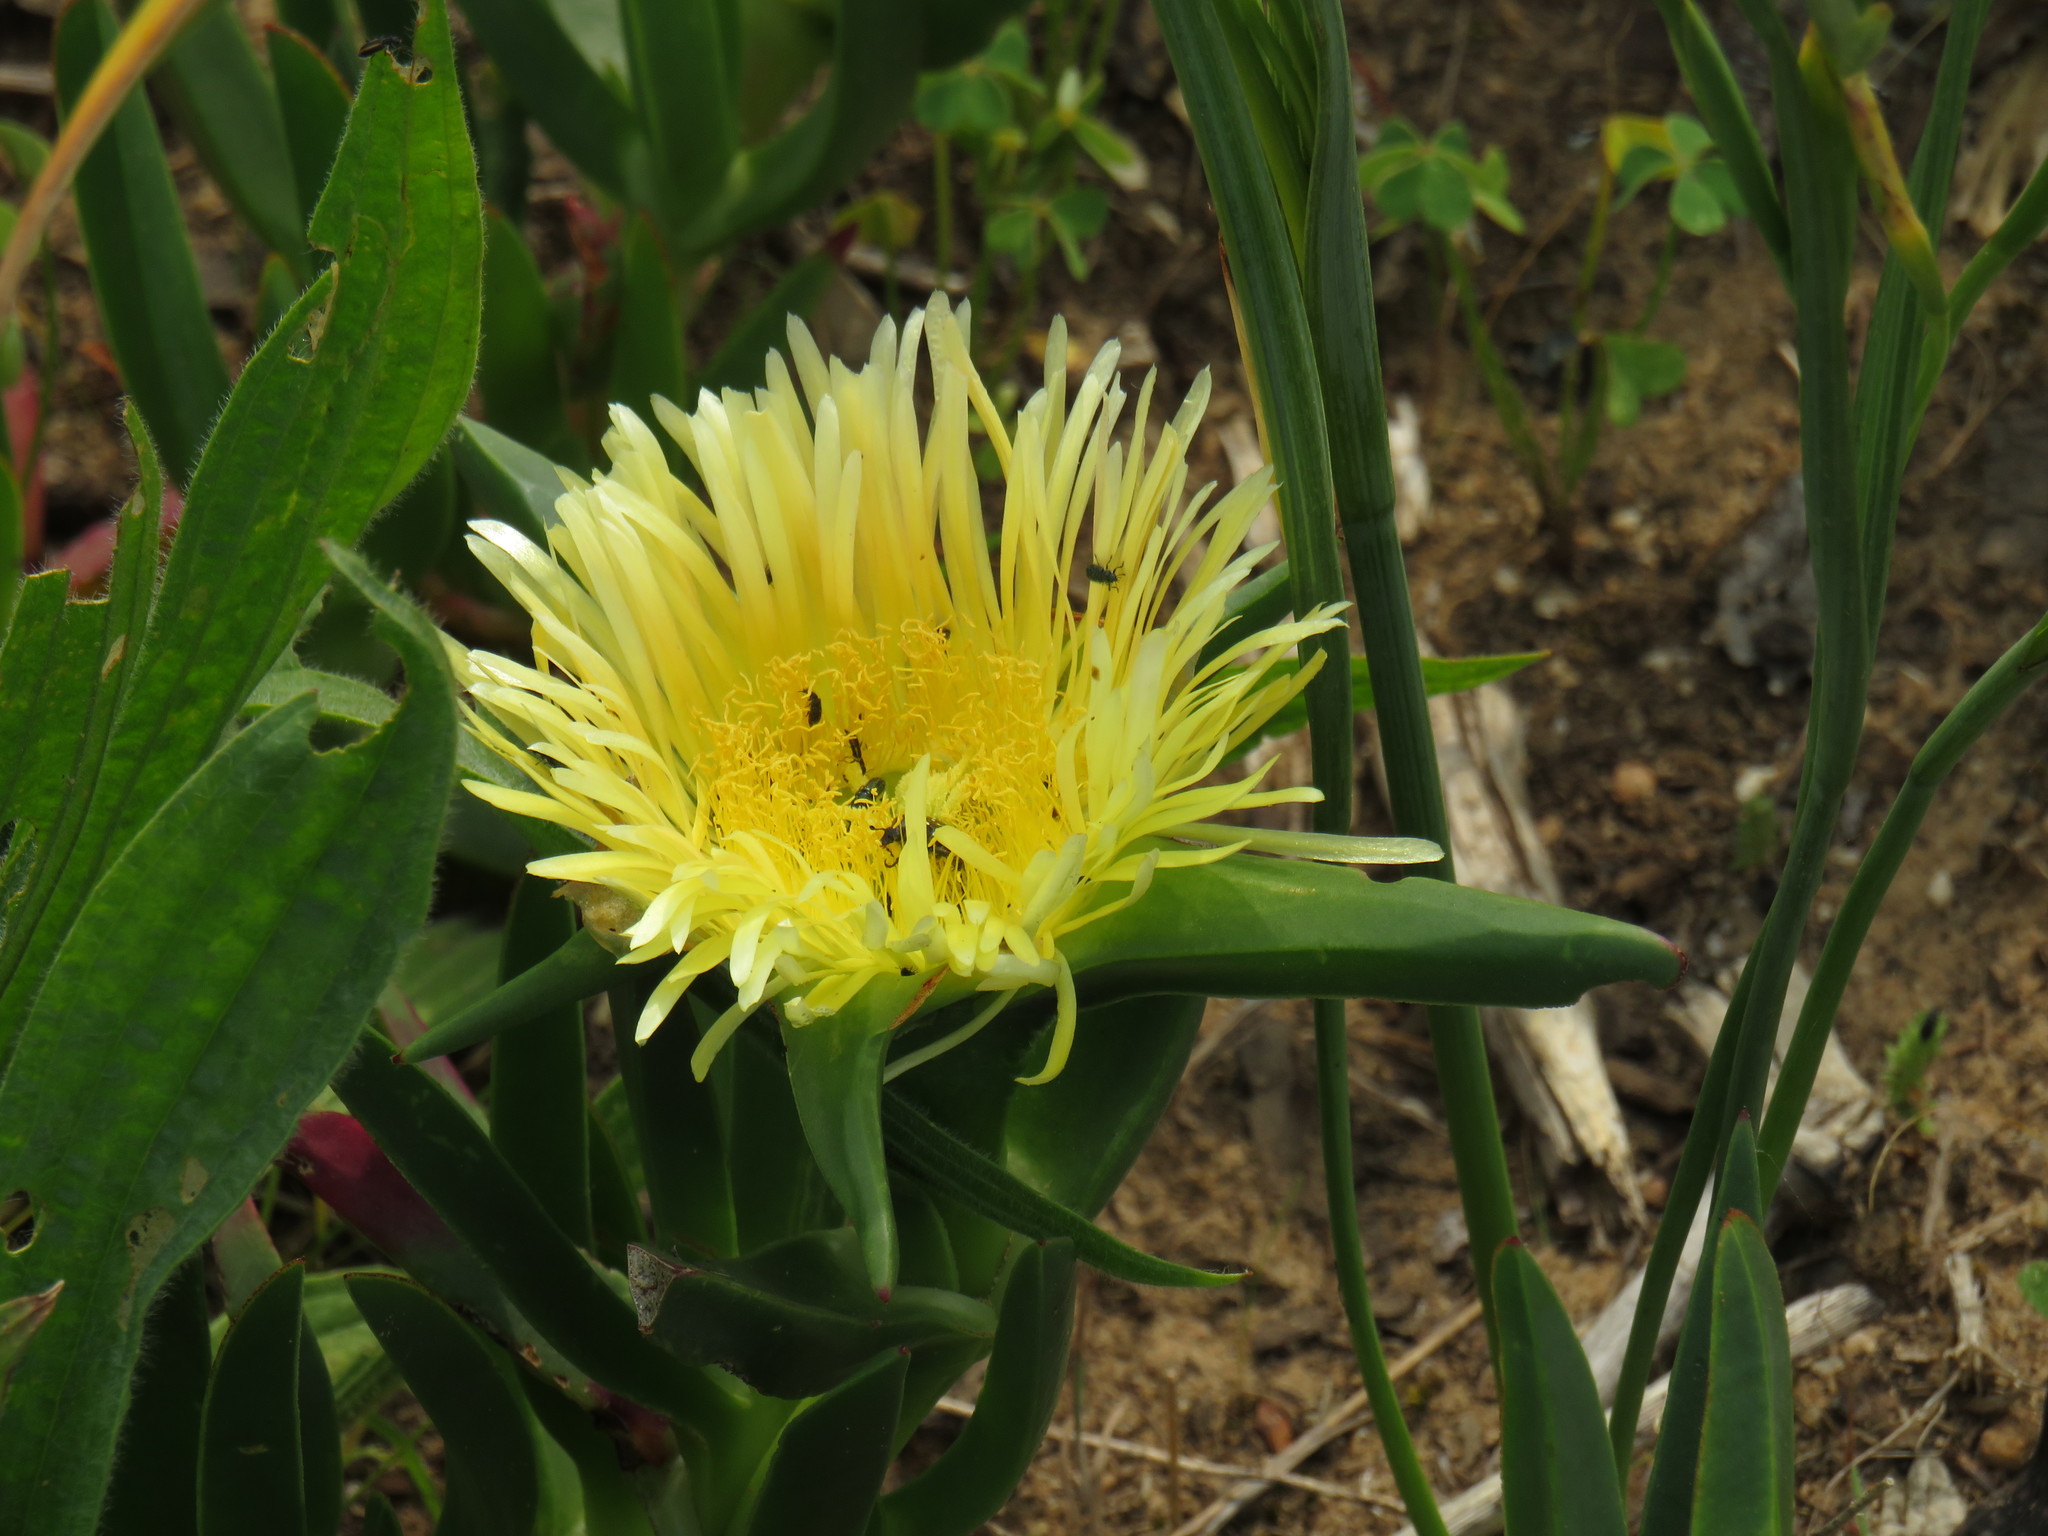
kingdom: Plantae
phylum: Tracheophyta
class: Magnoliopsida
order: Caryophyllales
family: Aizoaceae
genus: Carpobrotus
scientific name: Carpobrotus edulis
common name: Hottentot-fig
